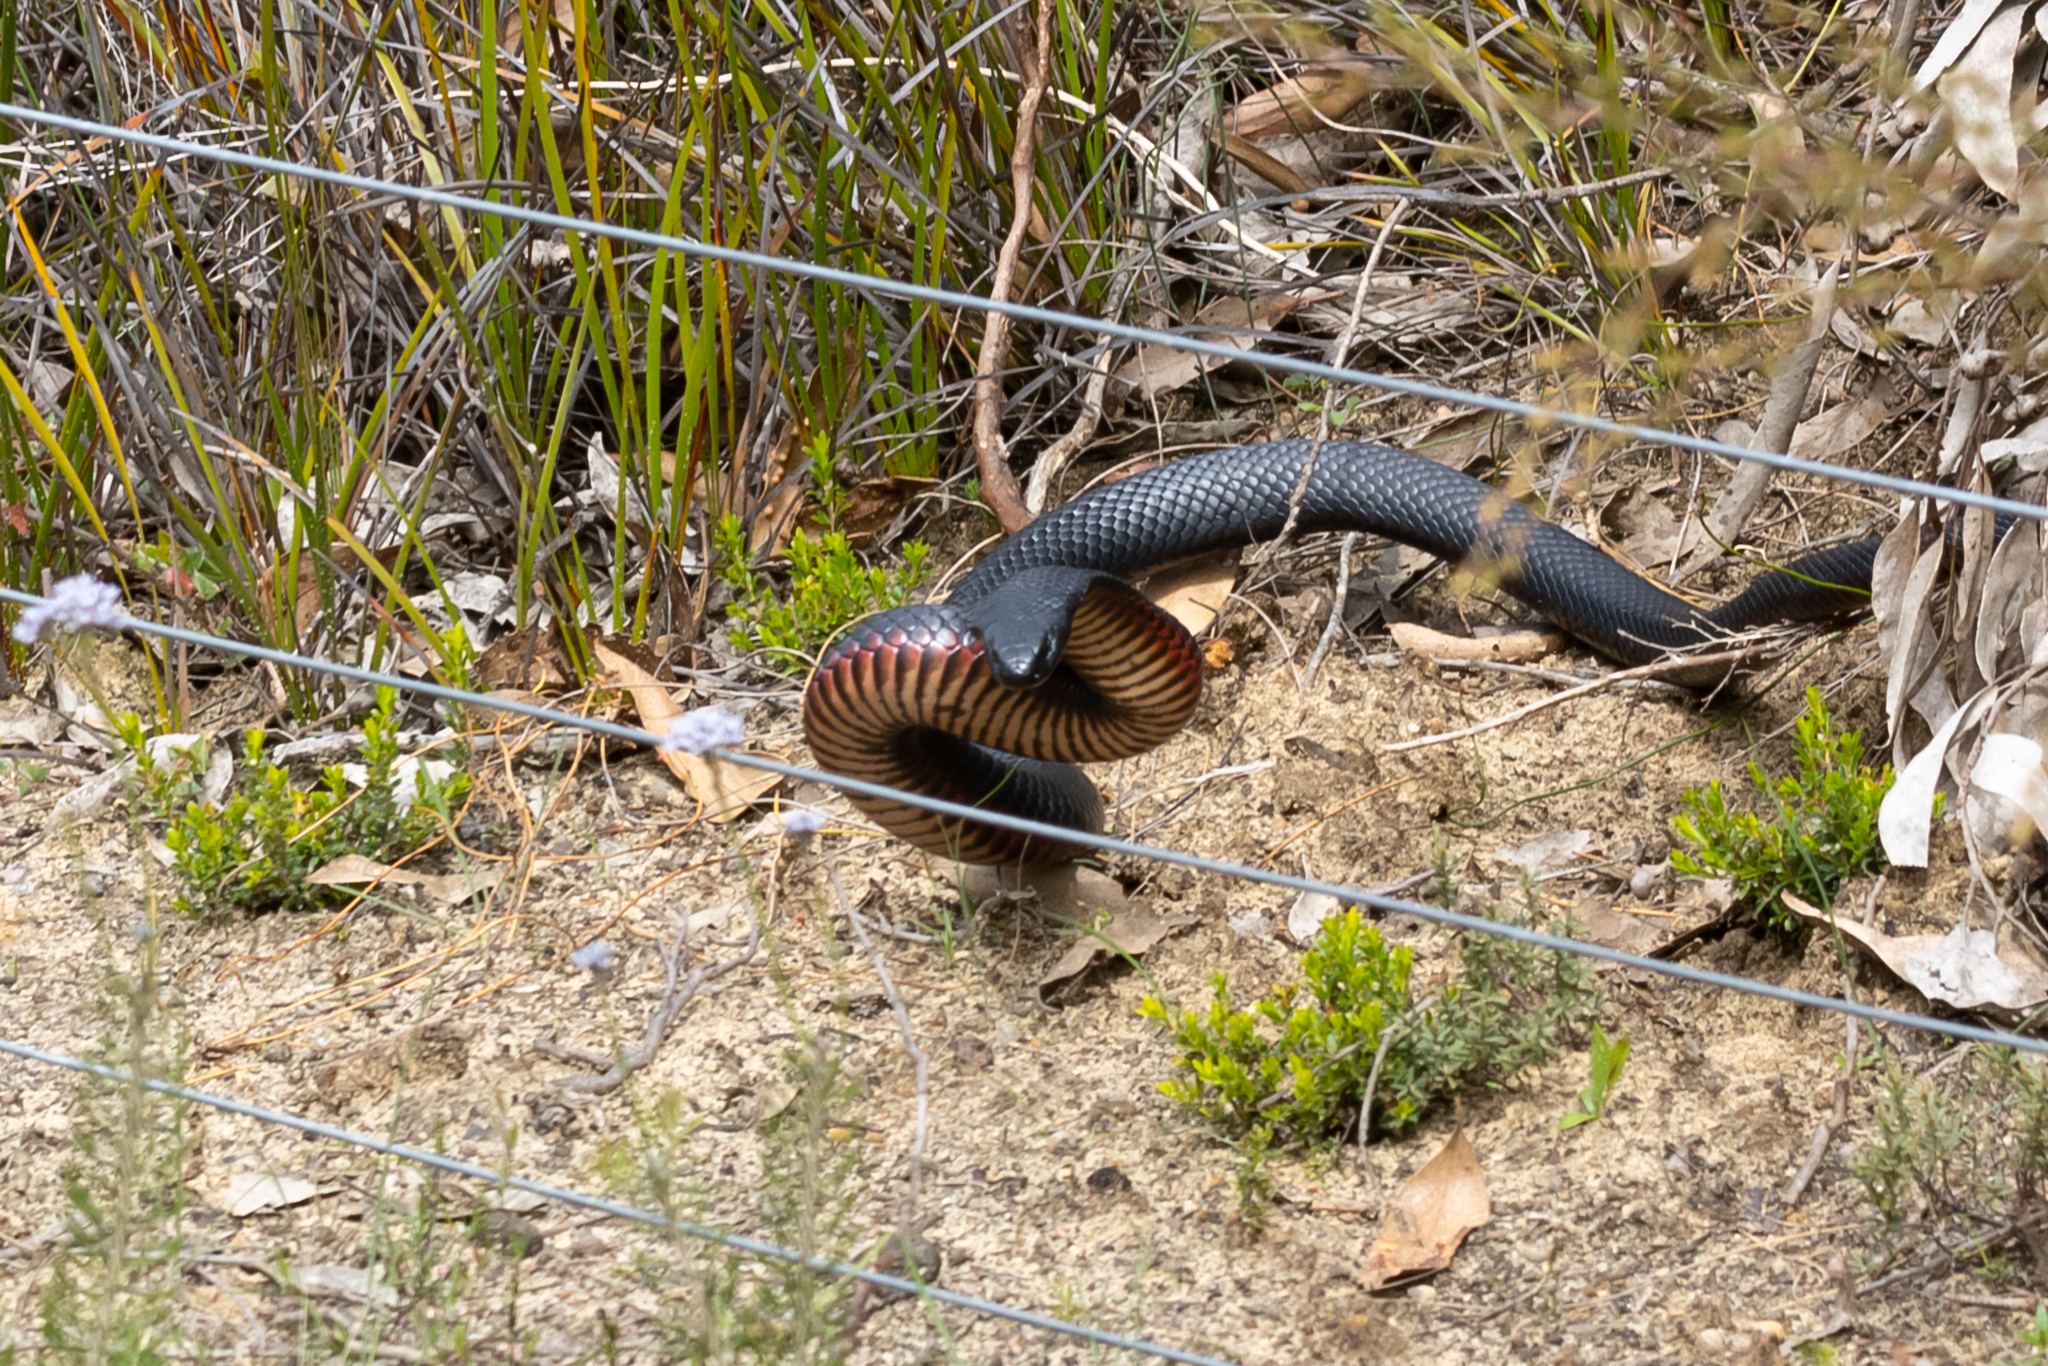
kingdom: Animalia
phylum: Chordata
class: Squamata
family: Elapidae
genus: Pseudechis
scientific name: Pseudechis porphyriacus
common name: Australian black snake
